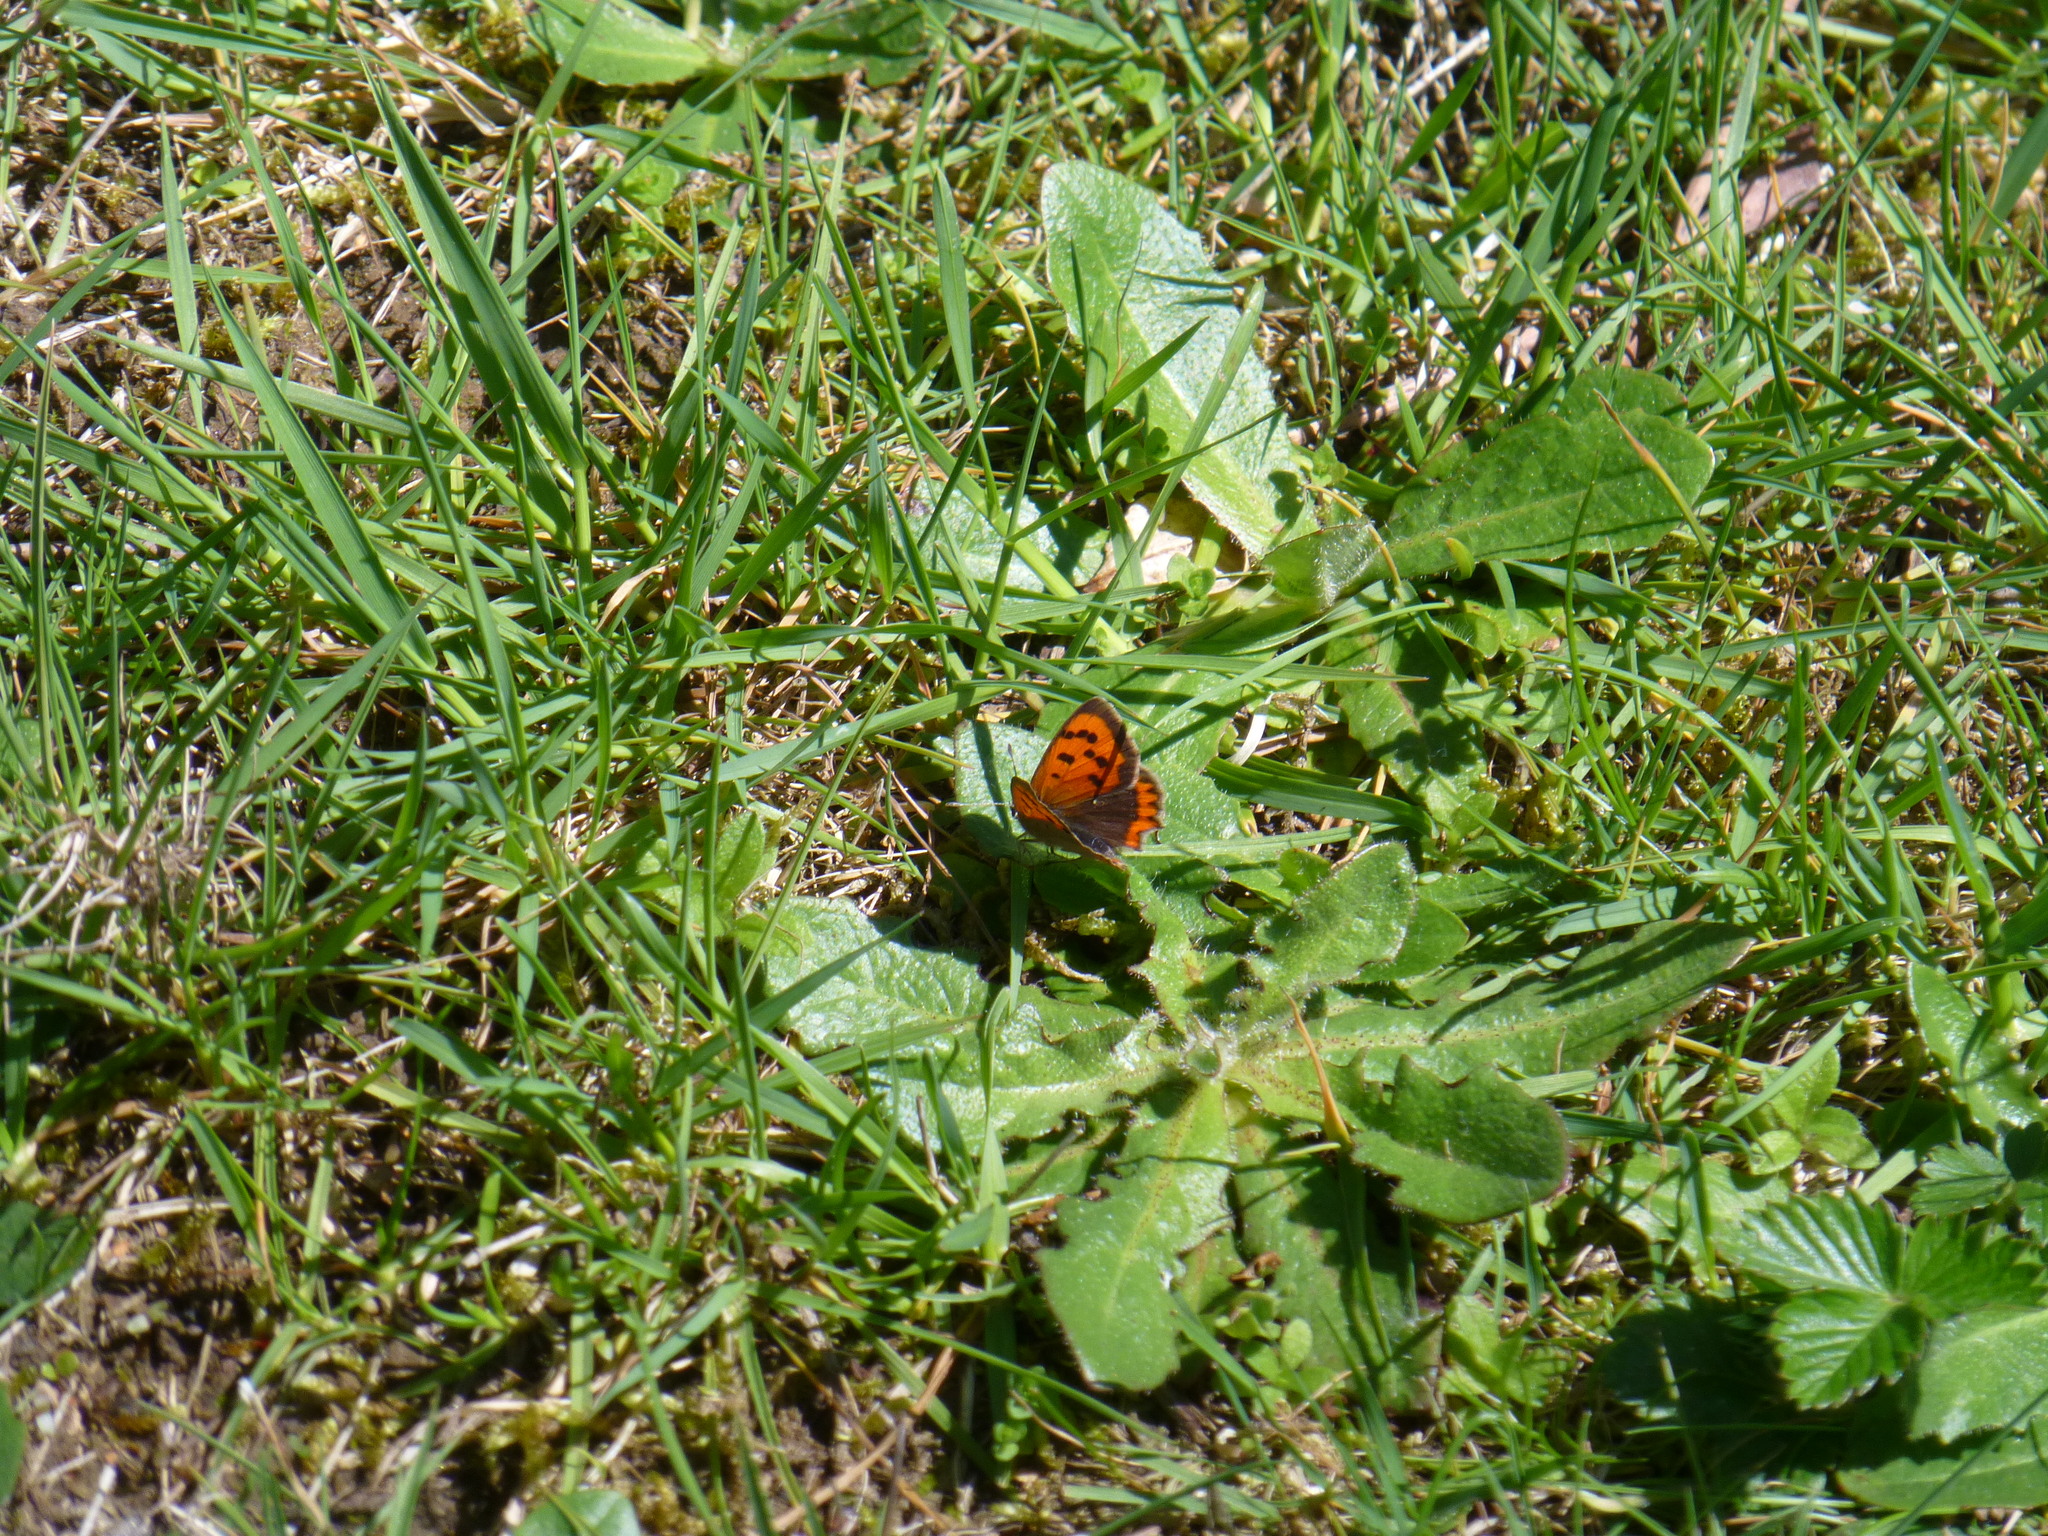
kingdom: Animalia
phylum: Arthropoda
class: Insecta
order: Lepidoptera
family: Lycaenidae
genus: Lycaena
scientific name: Lycaena phlaeas
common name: Small copper
